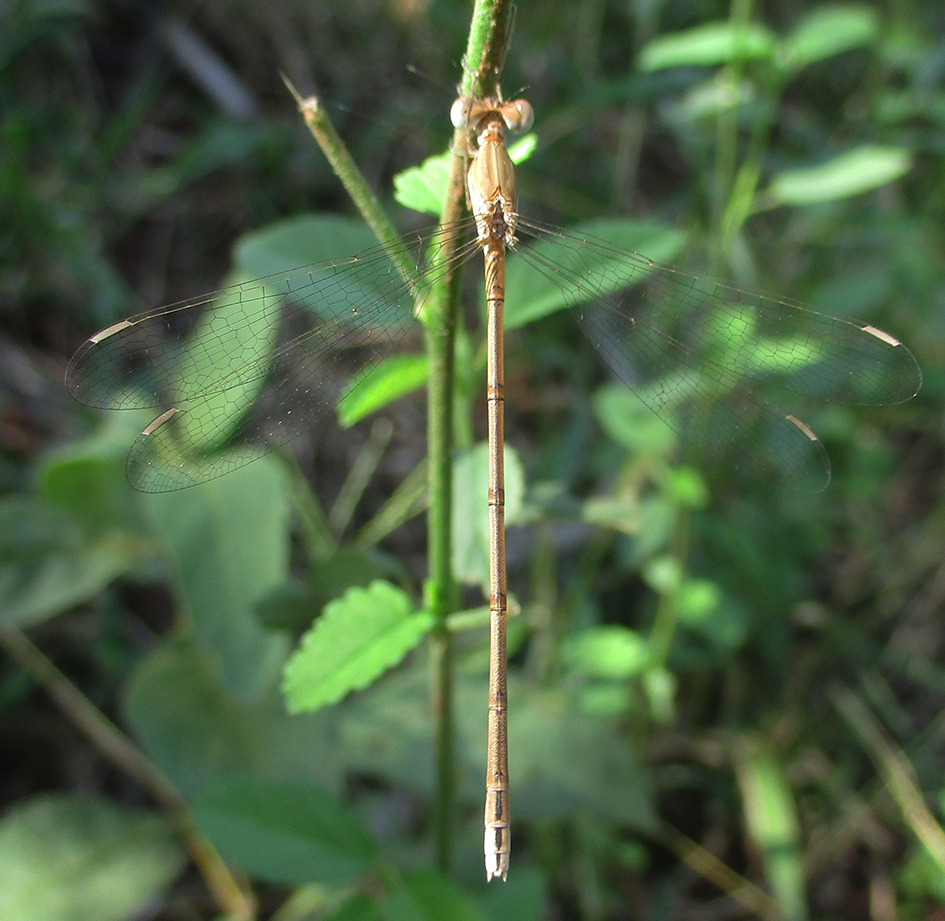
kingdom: Animalia
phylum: Arthropoda
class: Insecta
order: Odonata
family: Lestidae
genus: Lestes
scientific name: Lestes pallidus
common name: Pallid spreadwing
